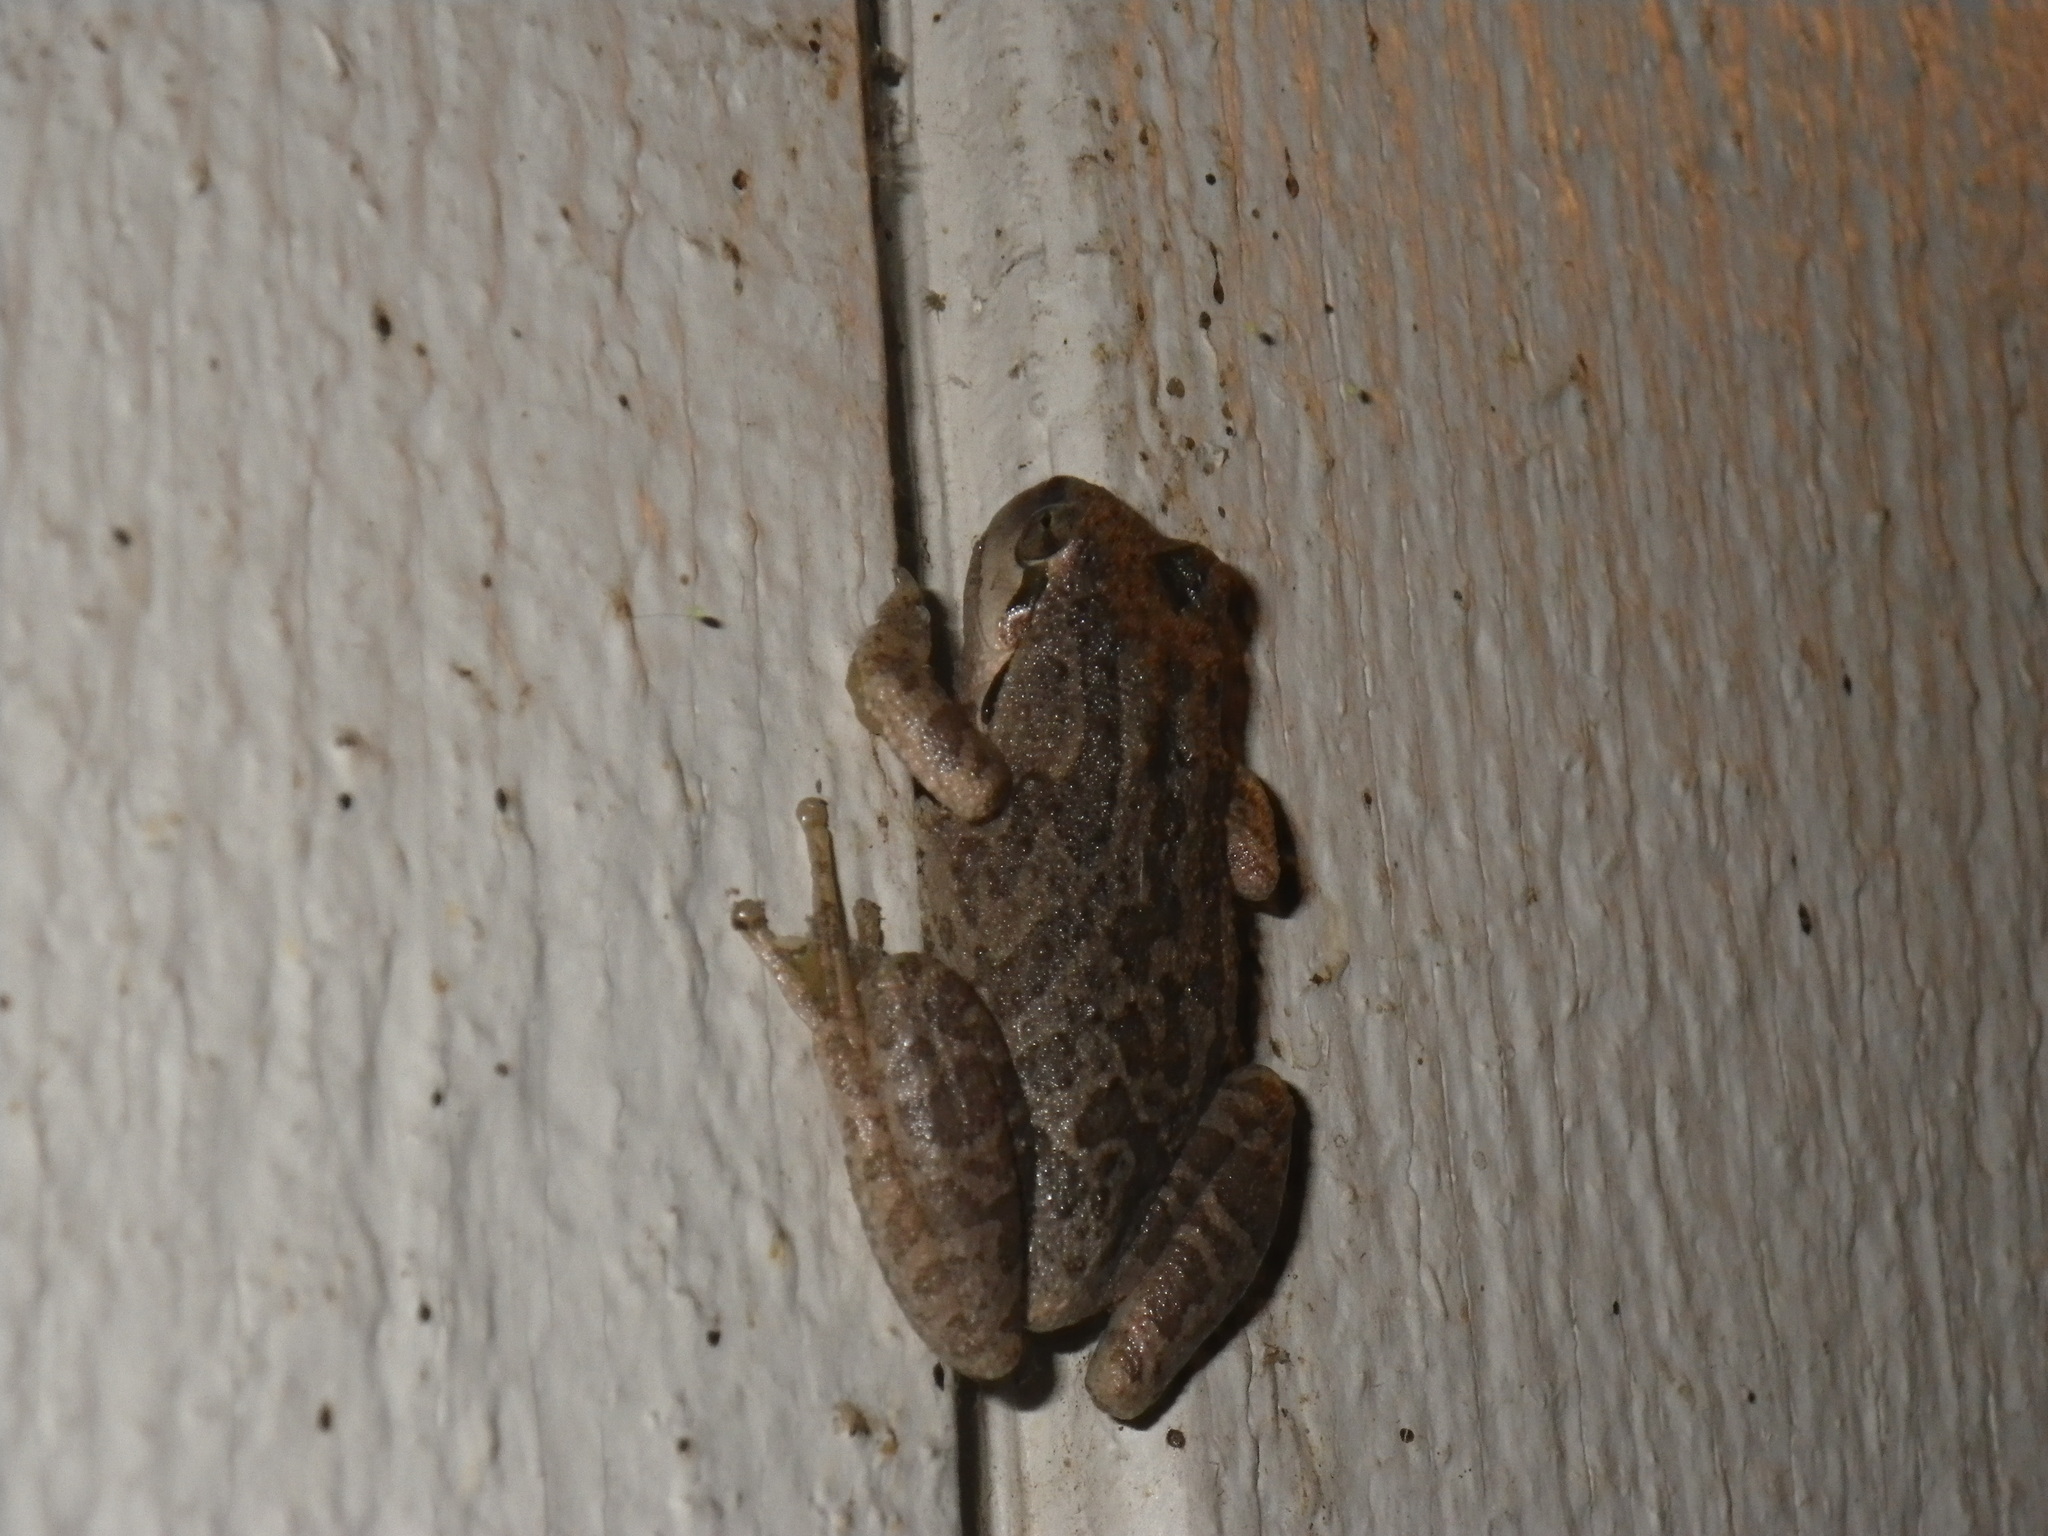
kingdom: Animalia
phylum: Chordata
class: Amphibia
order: Anura
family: Hylidae
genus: Pseudacris
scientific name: Pseudacris regilla
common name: Pacific chorus frog
